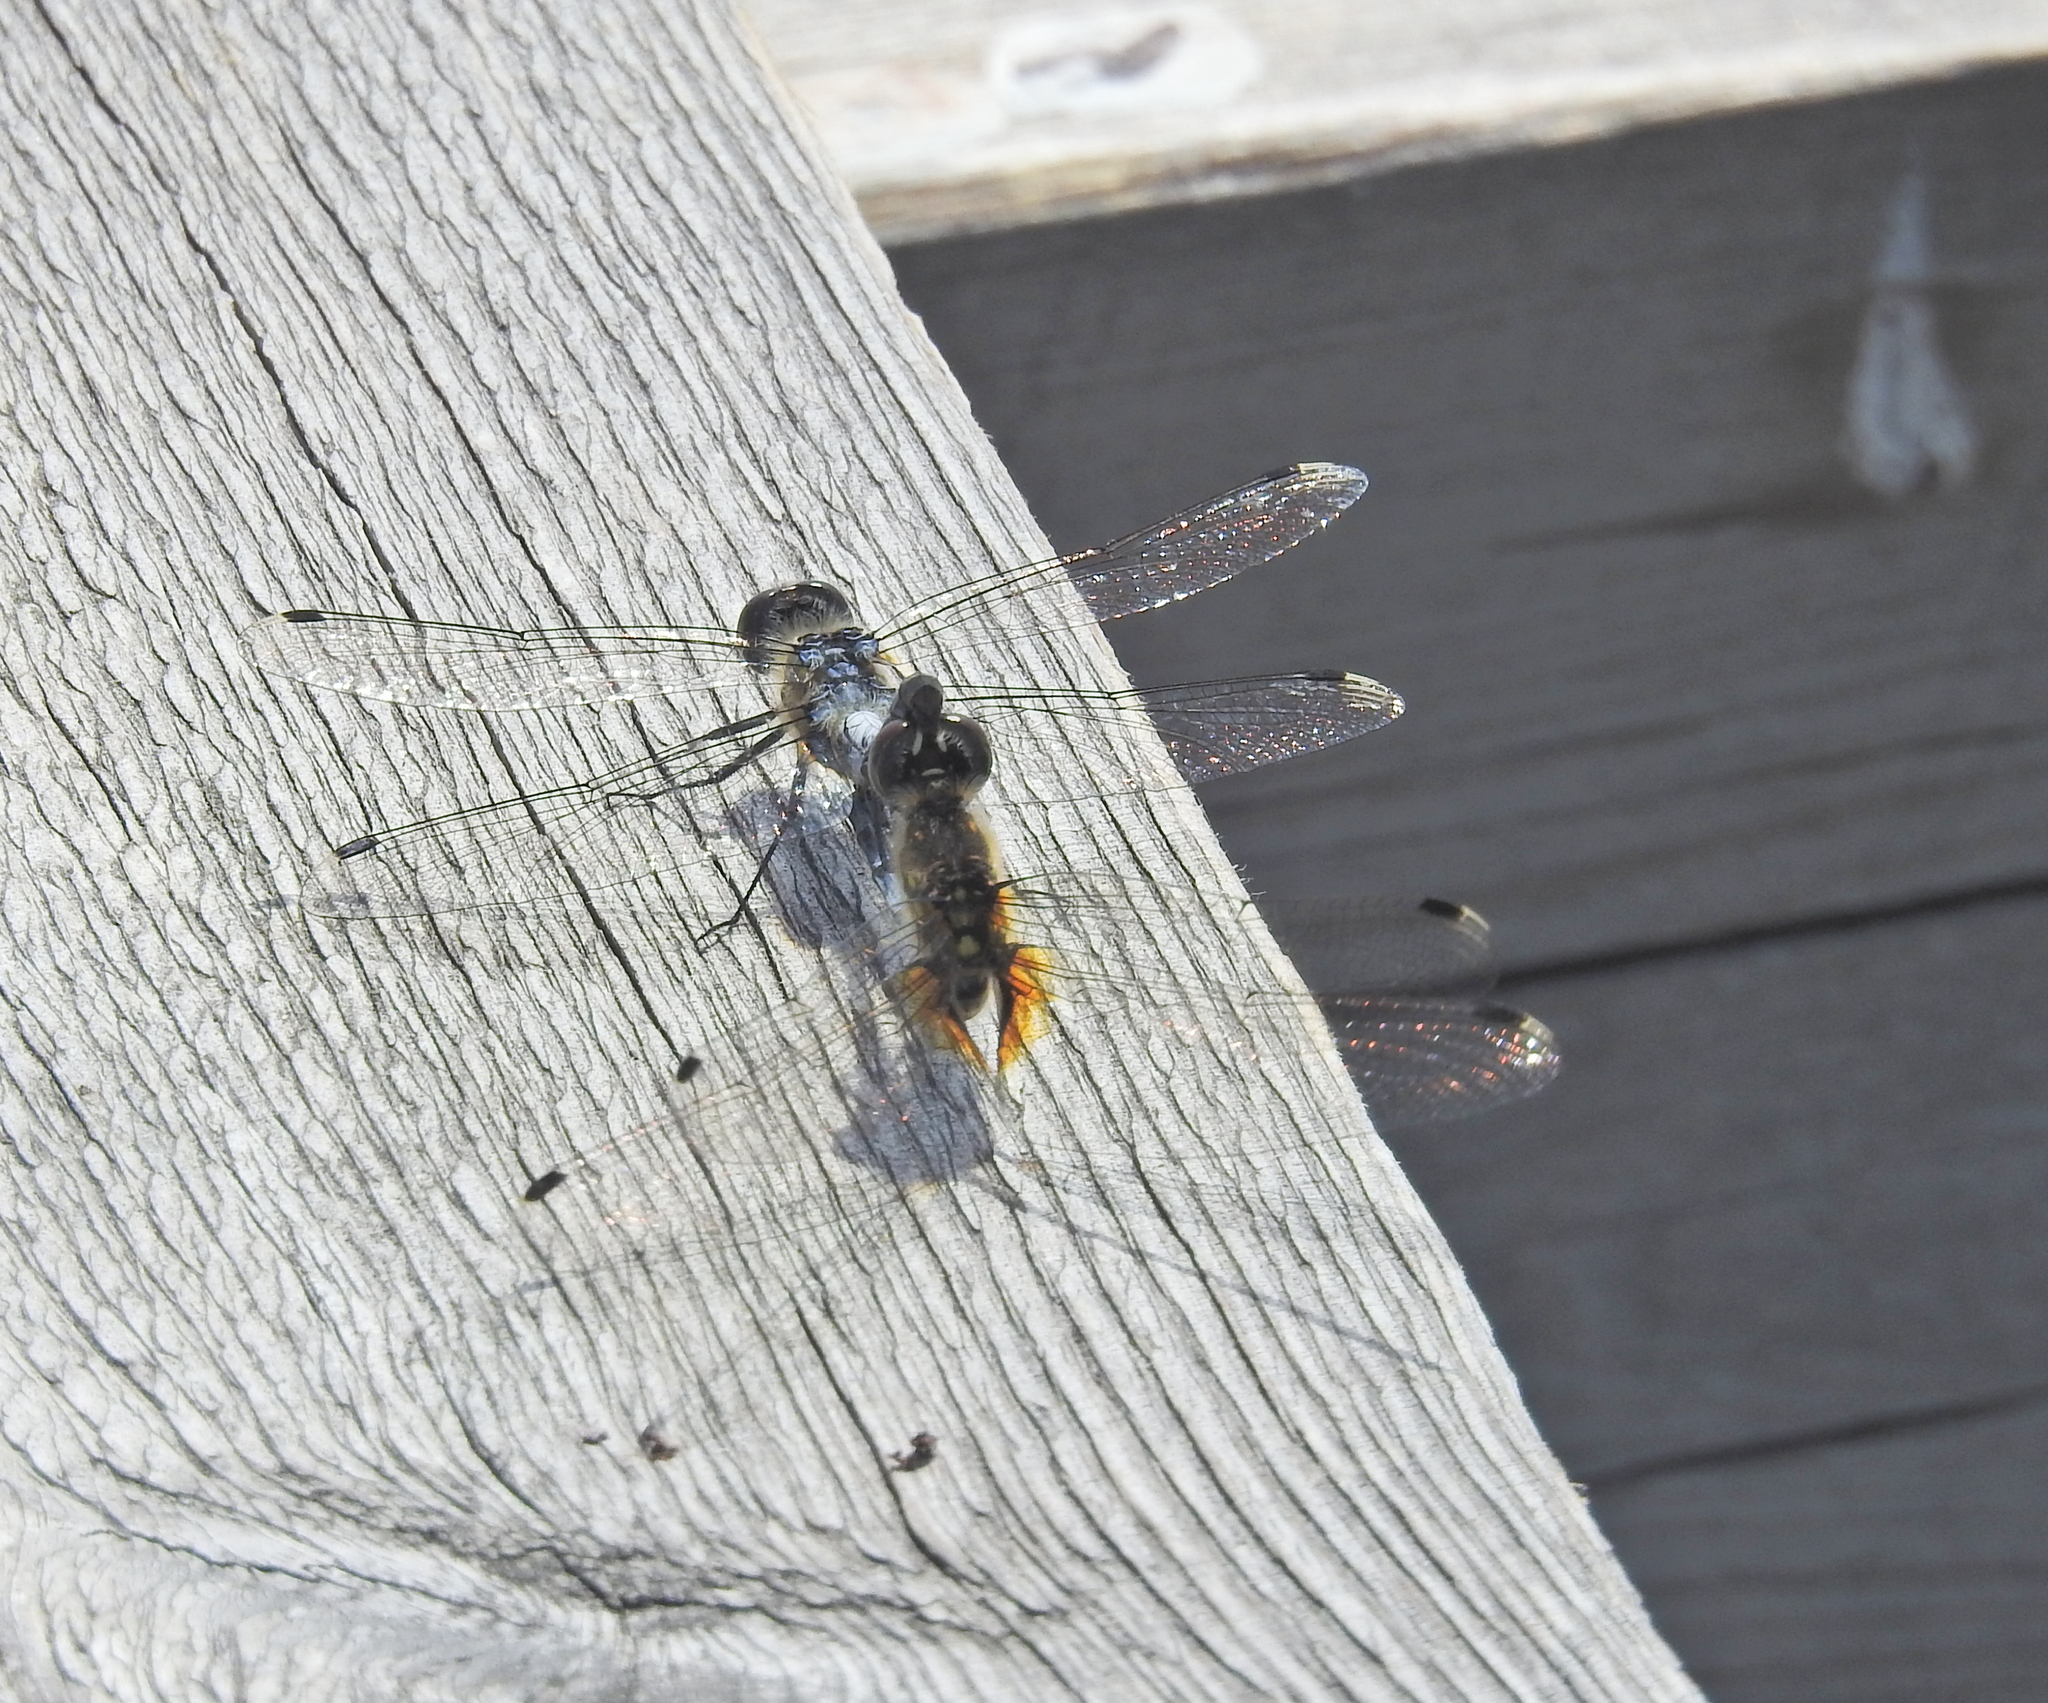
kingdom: Animalia
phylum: Arthropoda
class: Insecta
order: Odonata
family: Libellulidae
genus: Leucorrhinia
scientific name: Leucorrhinia albifrons
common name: Dark whiteface
